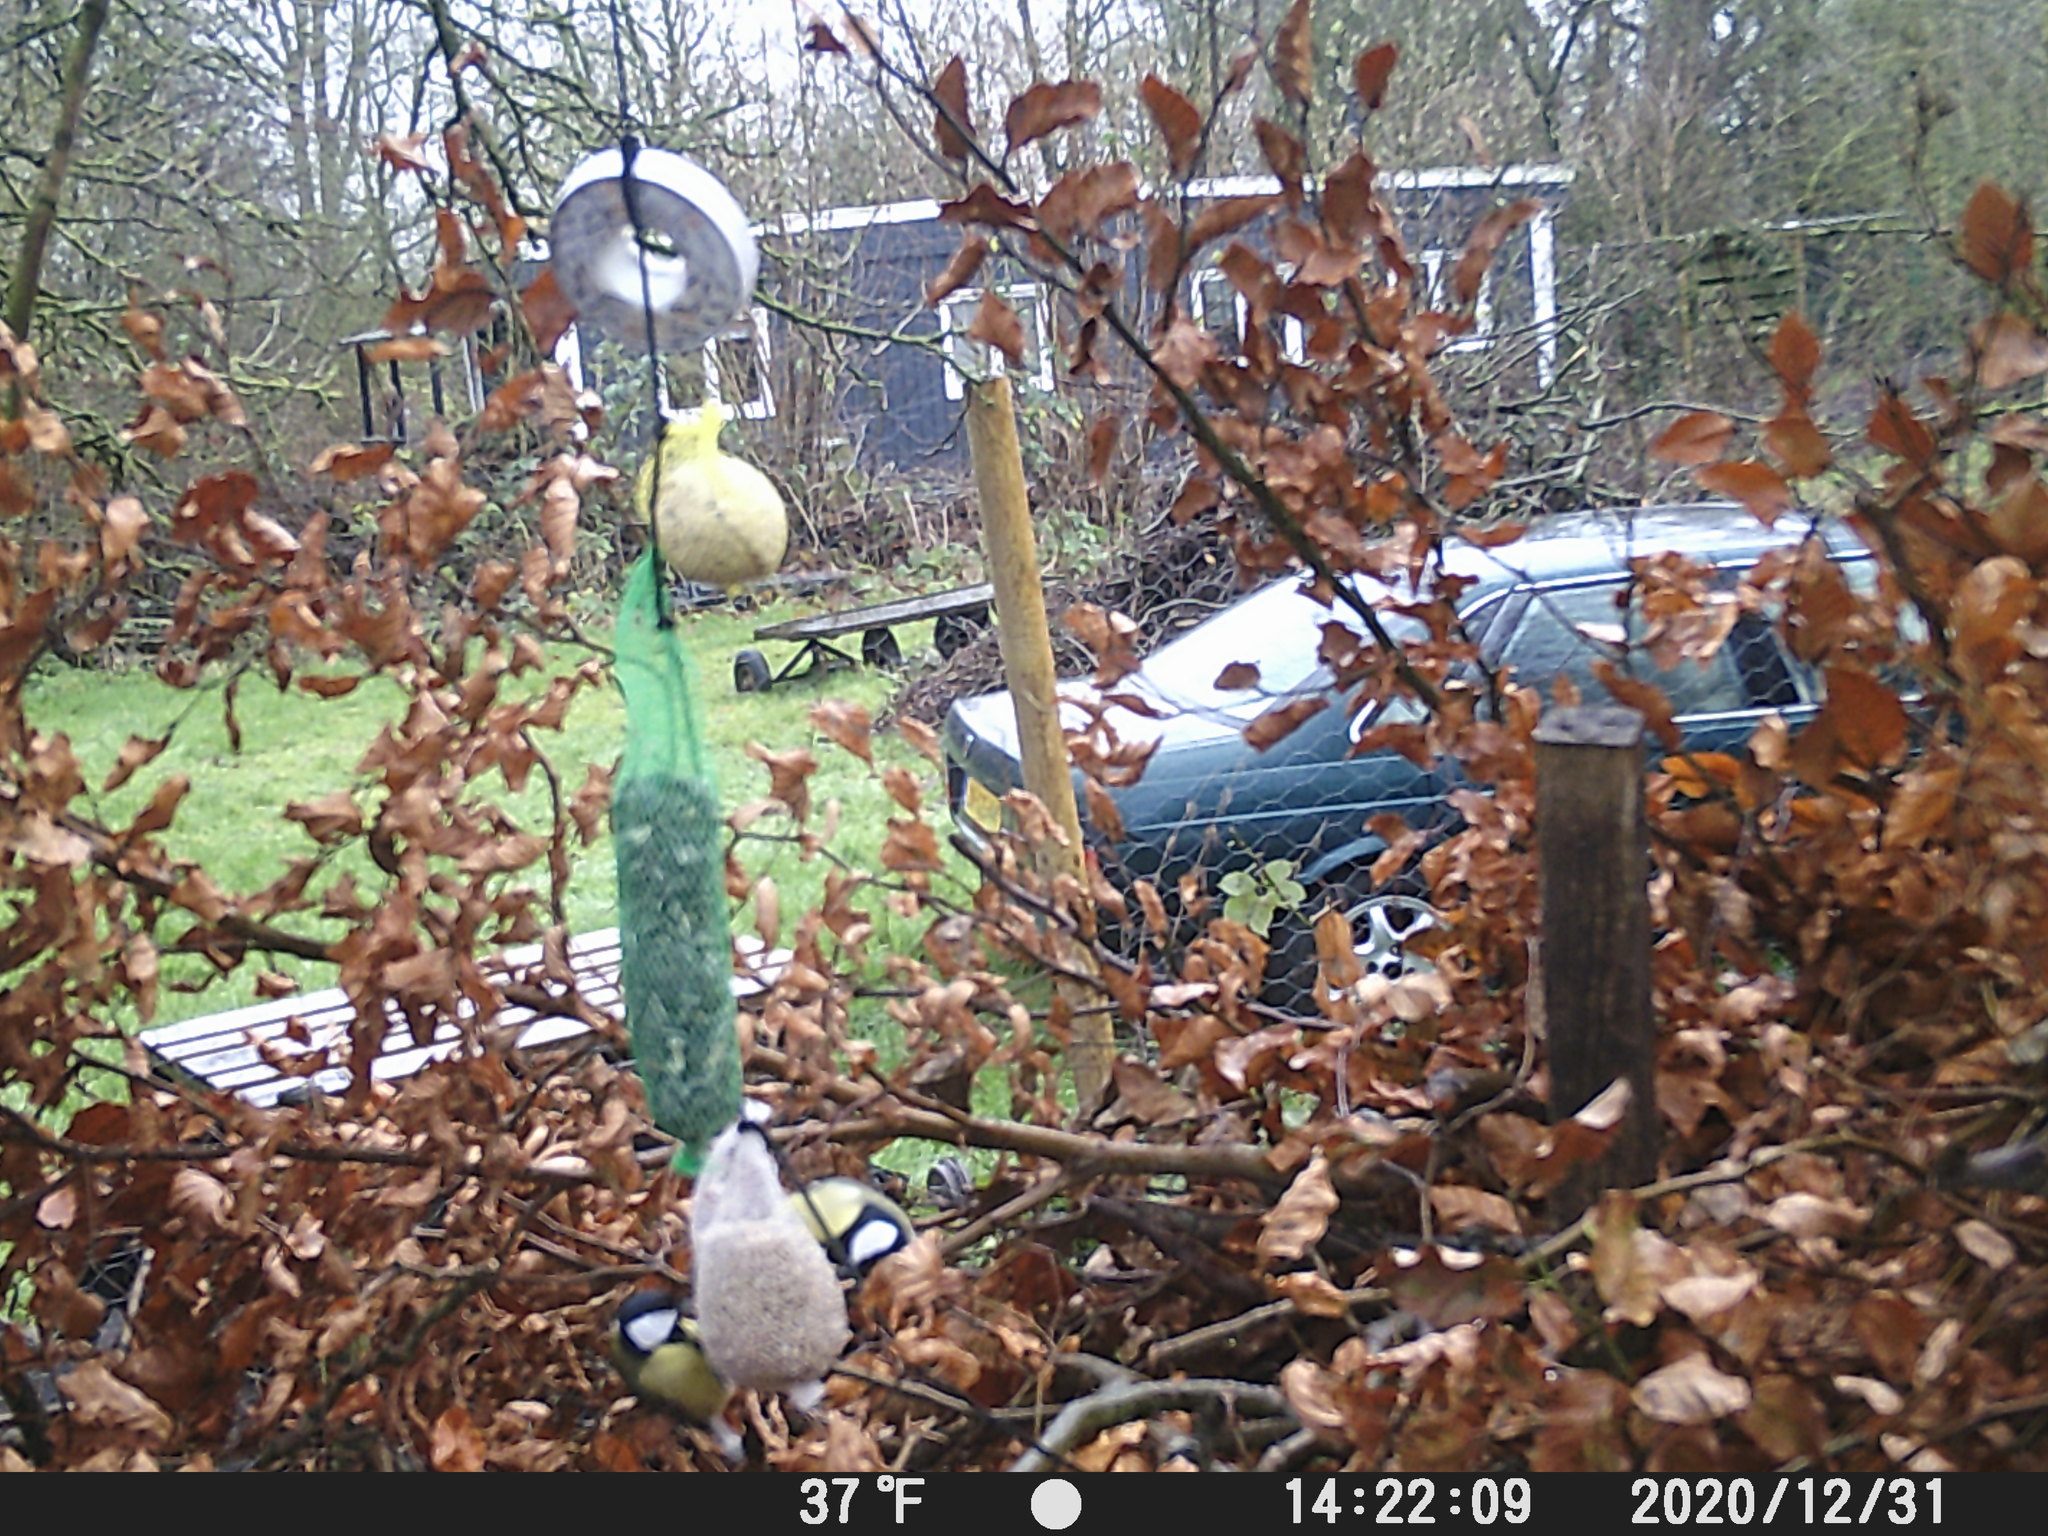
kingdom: Animalia
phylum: Chordata
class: Aves
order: Passeriformes
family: Paridae
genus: Parus
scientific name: Parus major
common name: Great tit
